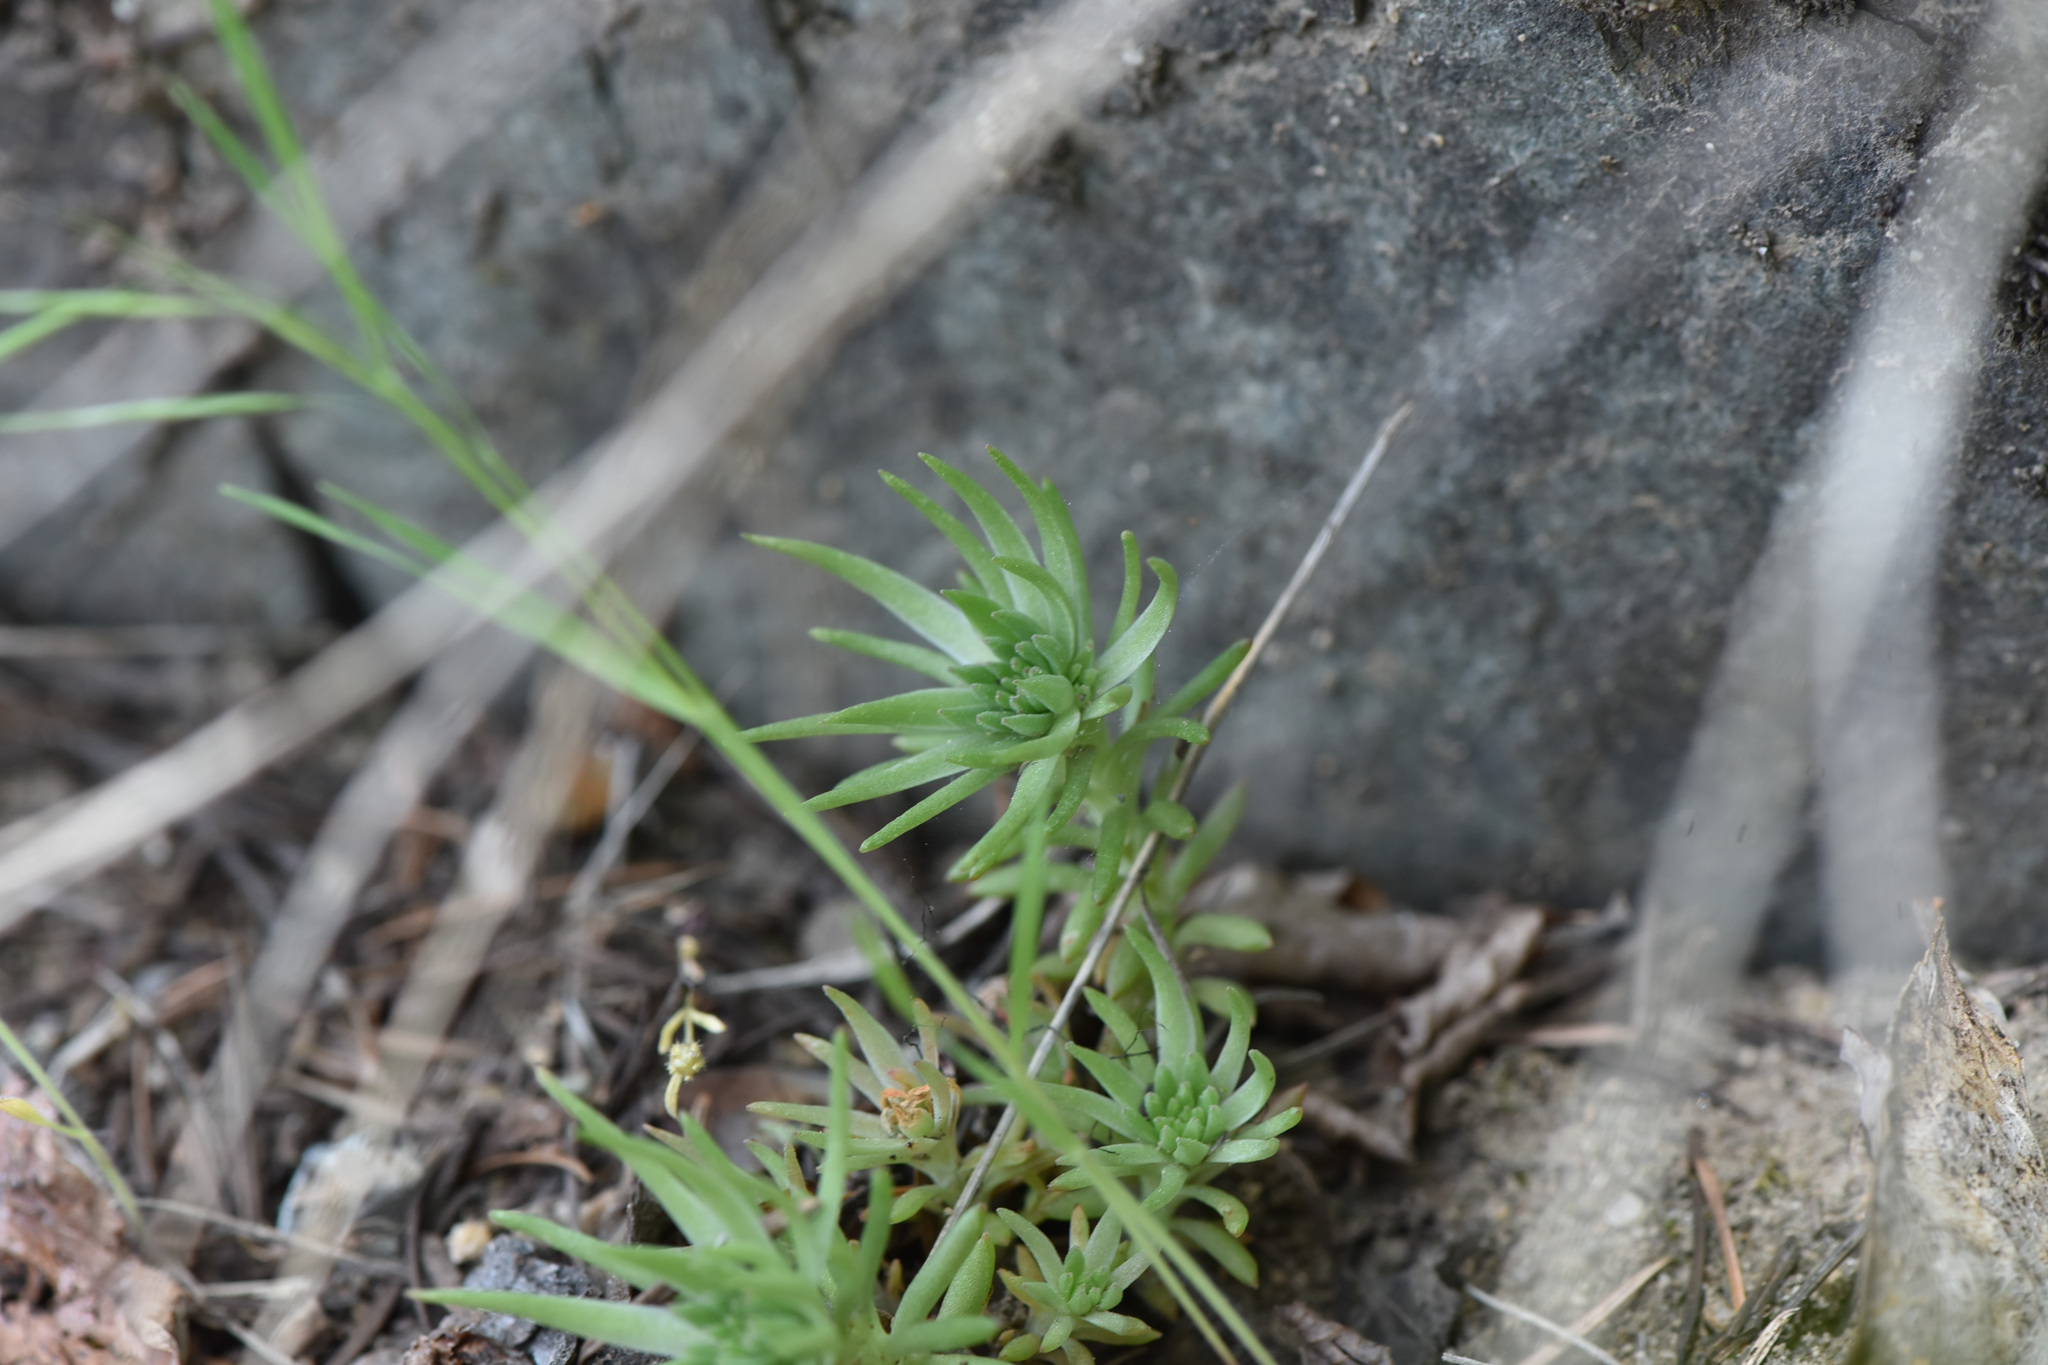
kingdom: Plantae
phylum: Tracheophyta
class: Magnoliopsida
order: Saxifragales
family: Crassulaceae
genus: Sedum
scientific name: Sedum stenopetalum
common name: Narrow-petaled stonecrop
